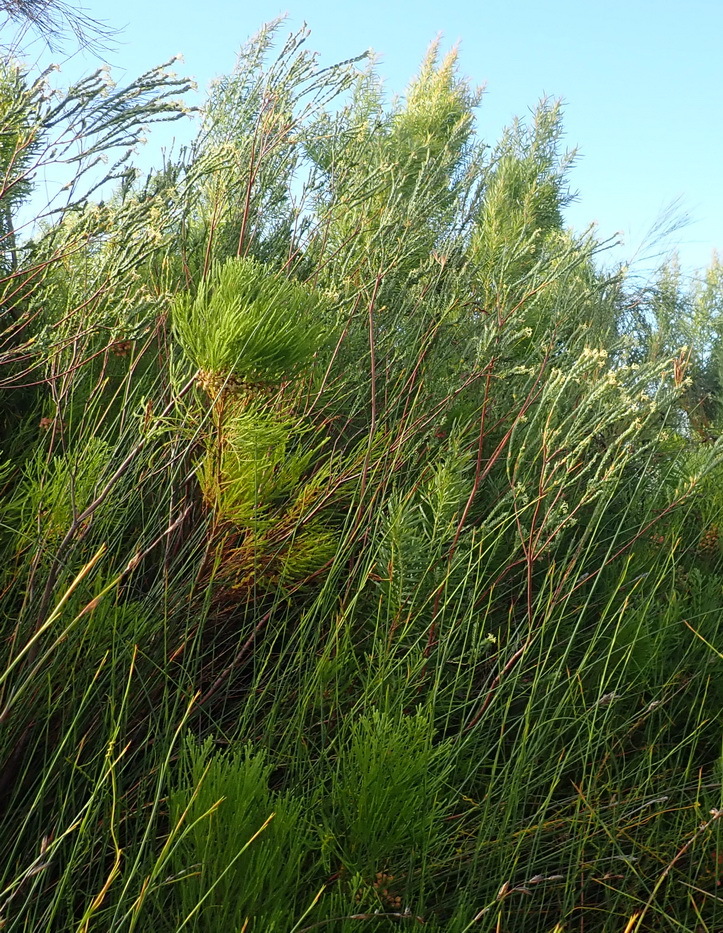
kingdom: Plantae
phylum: Tracheophyta
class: Magnoliopsida
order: Malvales
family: Thymelaeaceae
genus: Gnidia
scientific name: Gnidia oppositifolia
